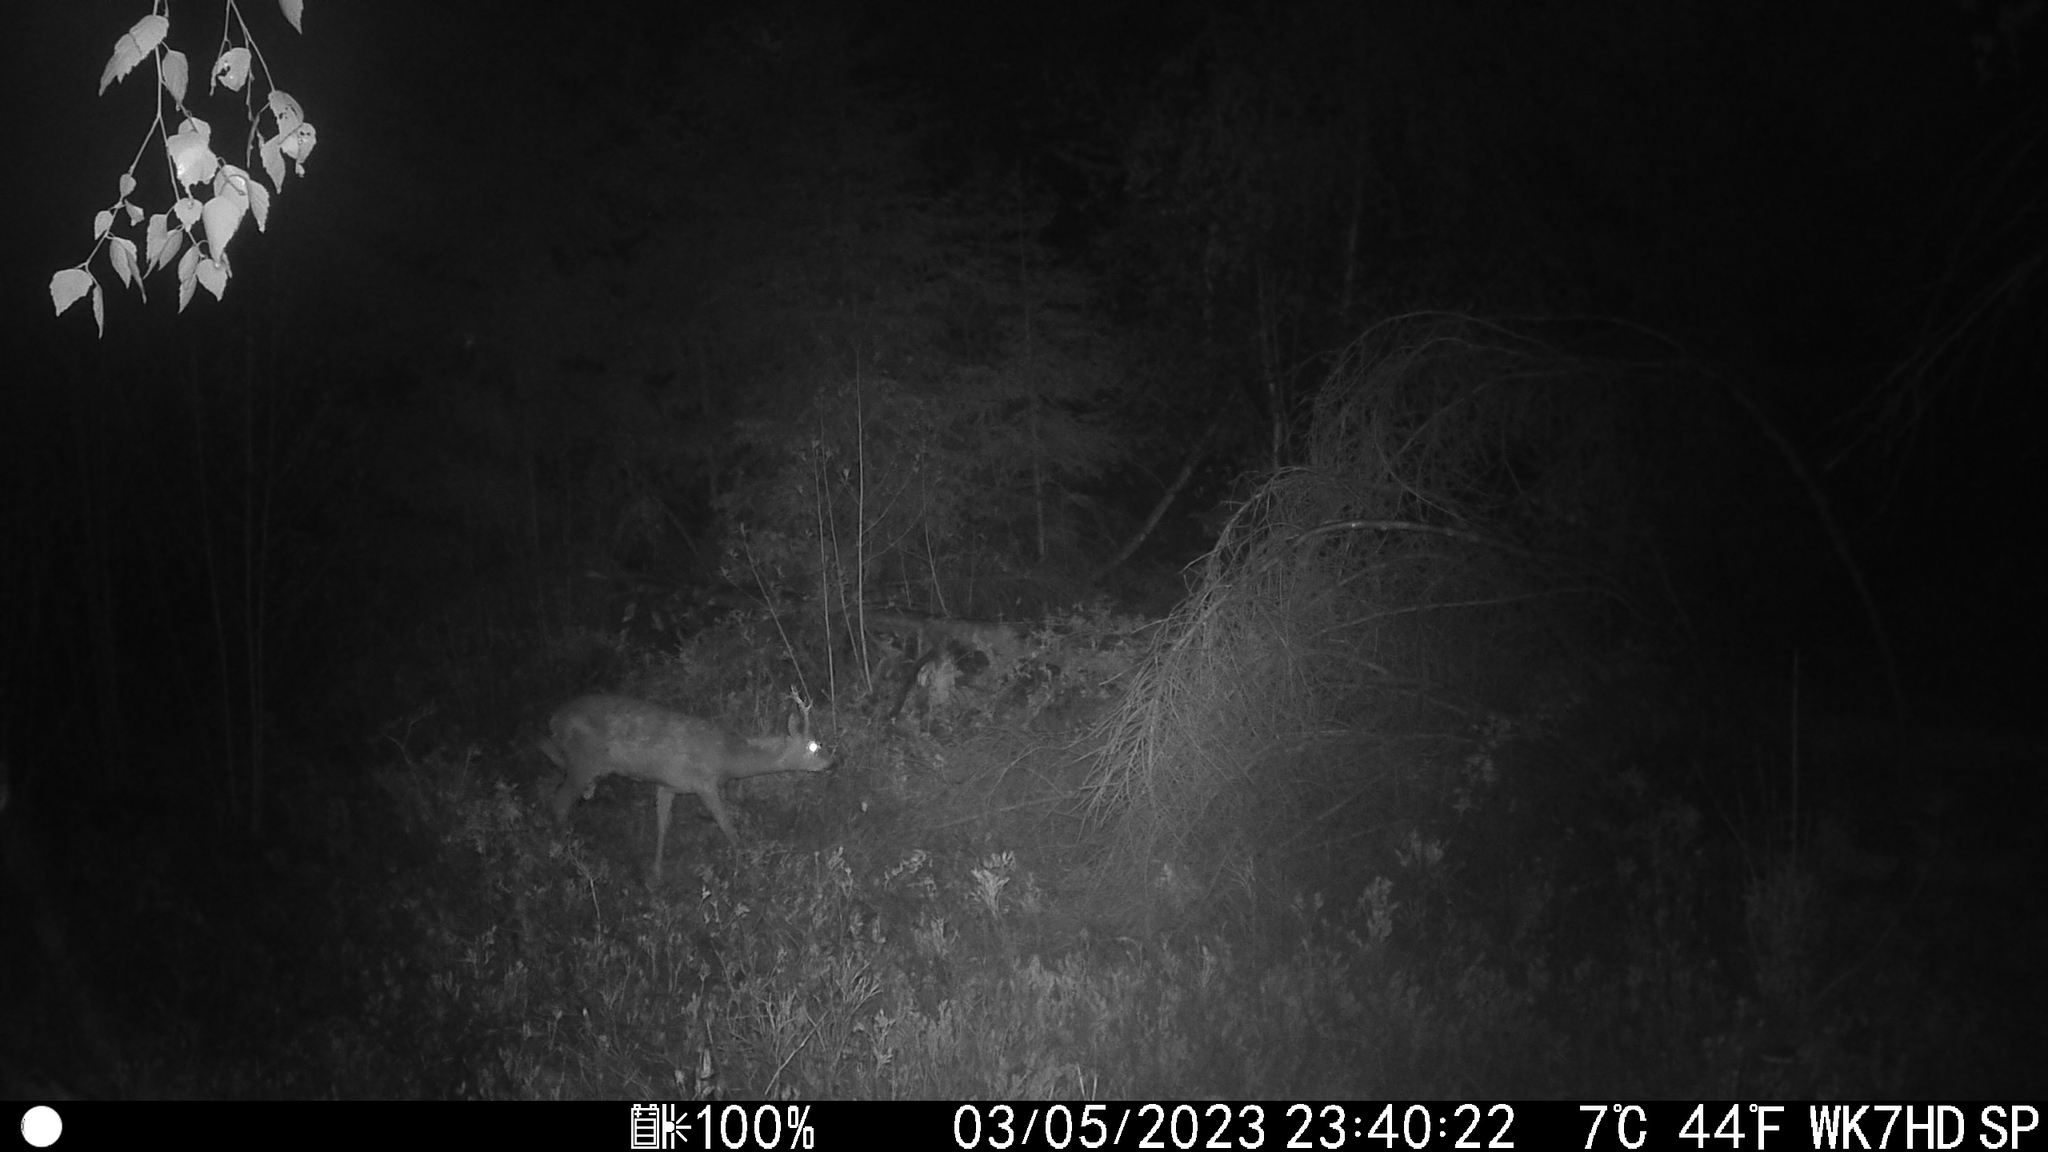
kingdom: Animalia
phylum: Chordata
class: Mammalia
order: Artiodactyla
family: Cervidae
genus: Capreolus
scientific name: Capreolus capreolus
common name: Western roe deer
